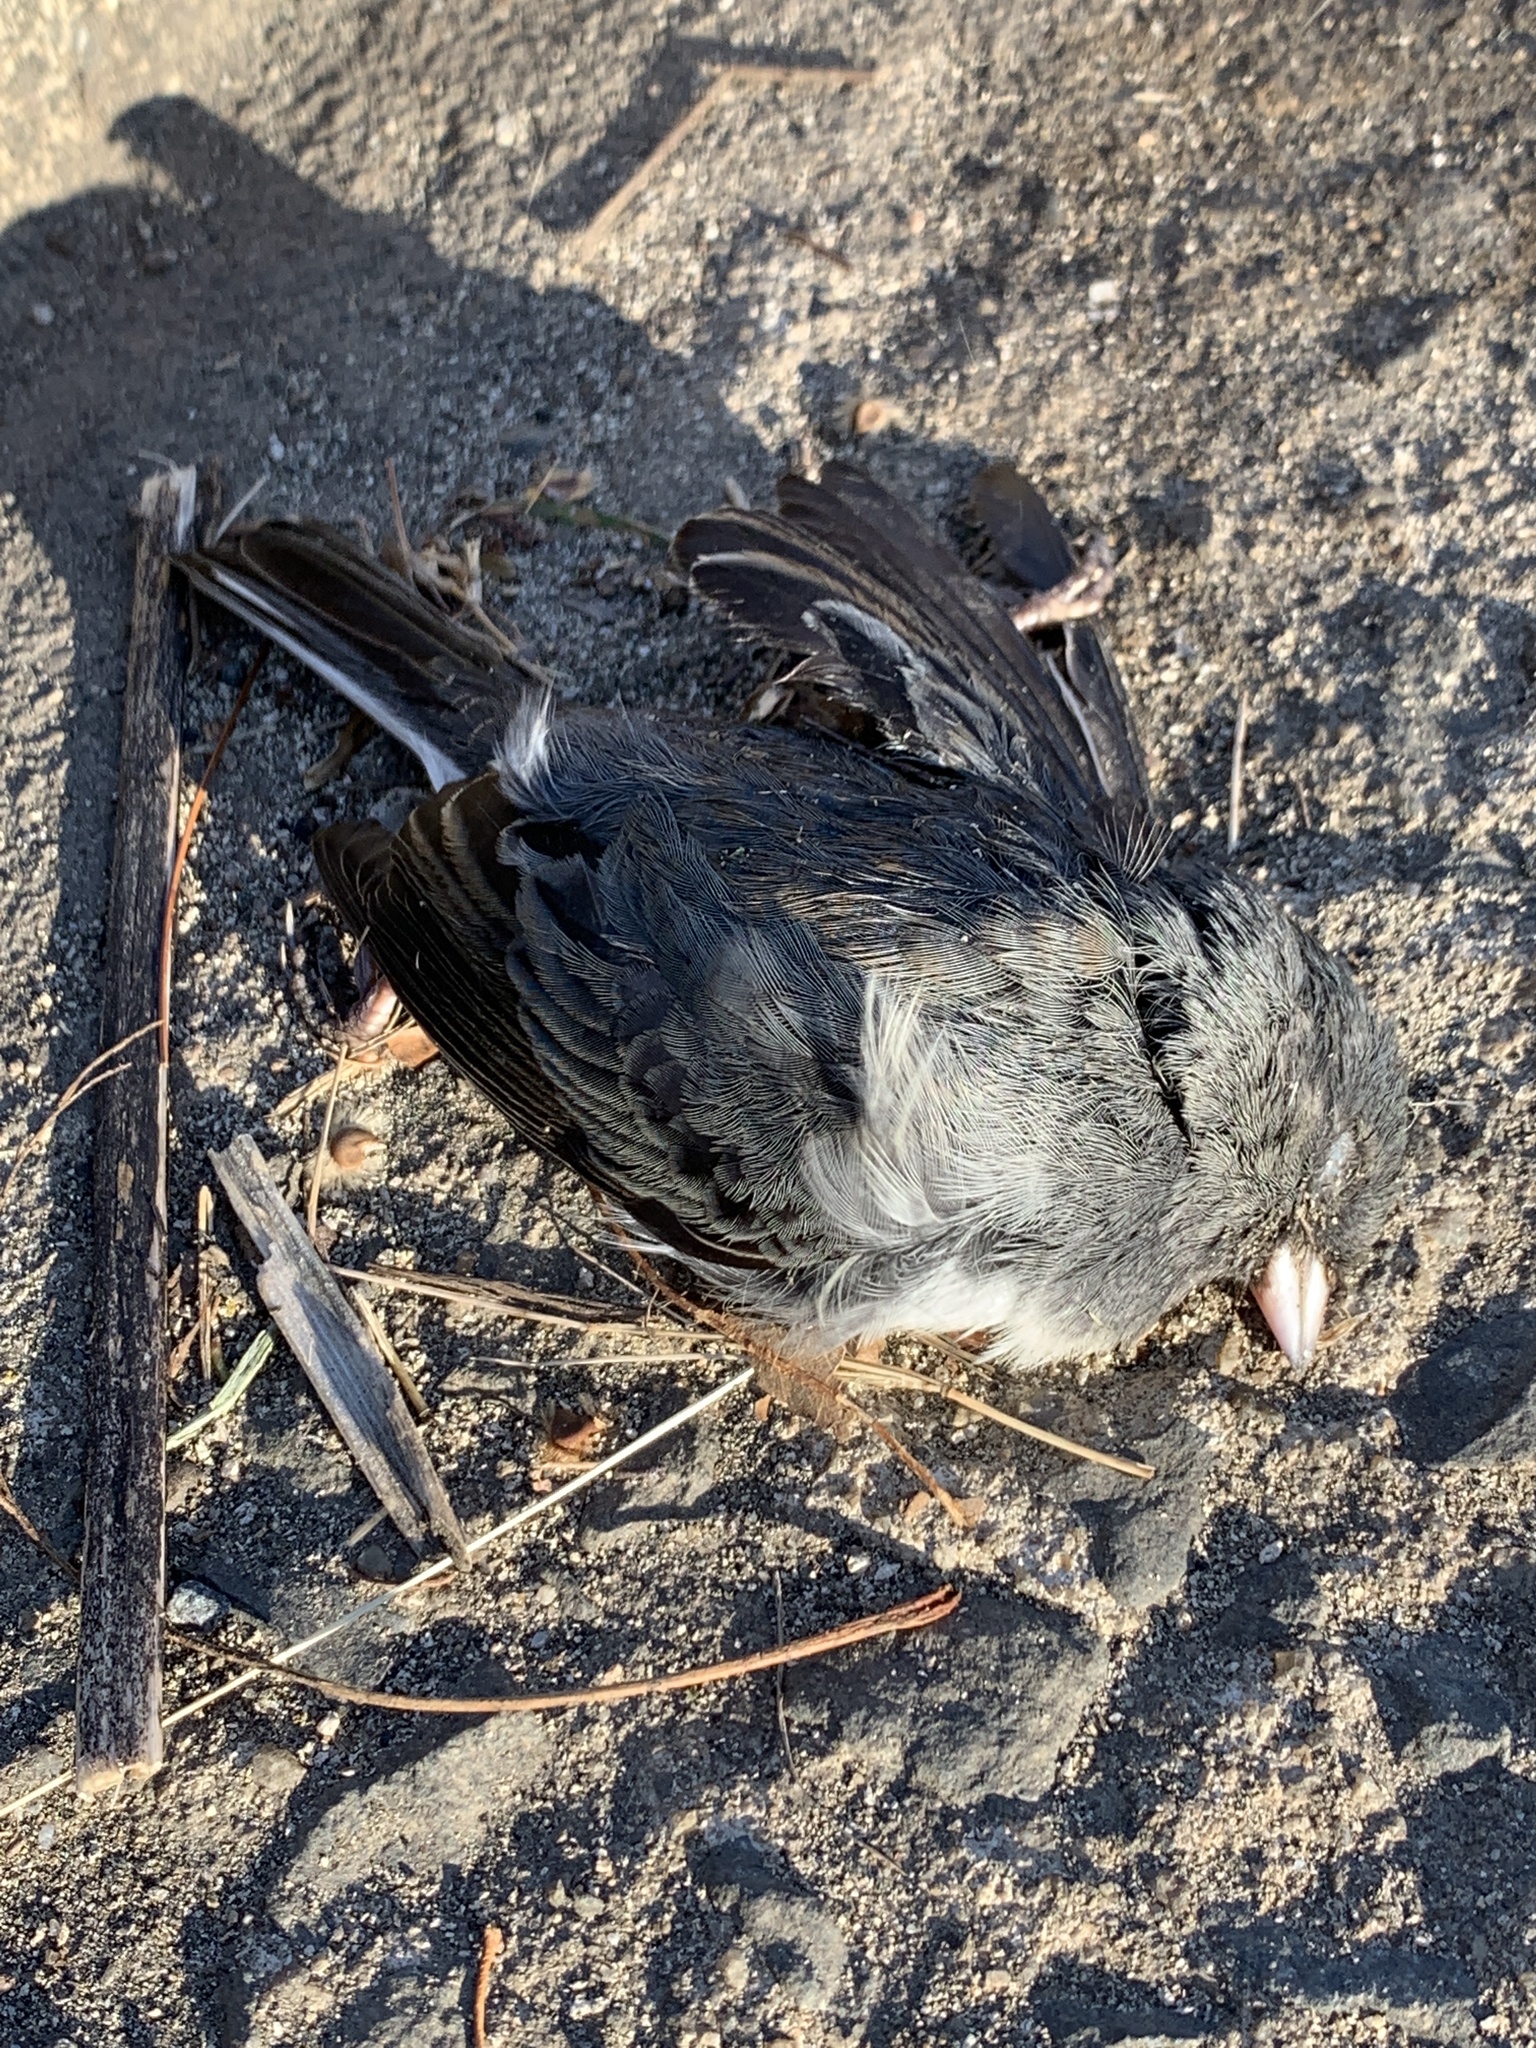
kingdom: Animalia
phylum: Chordata
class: Aves
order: Passeriformes
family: Passerellidae
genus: Junco
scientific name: Junco hyemalis
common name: Dark-eyed junco
